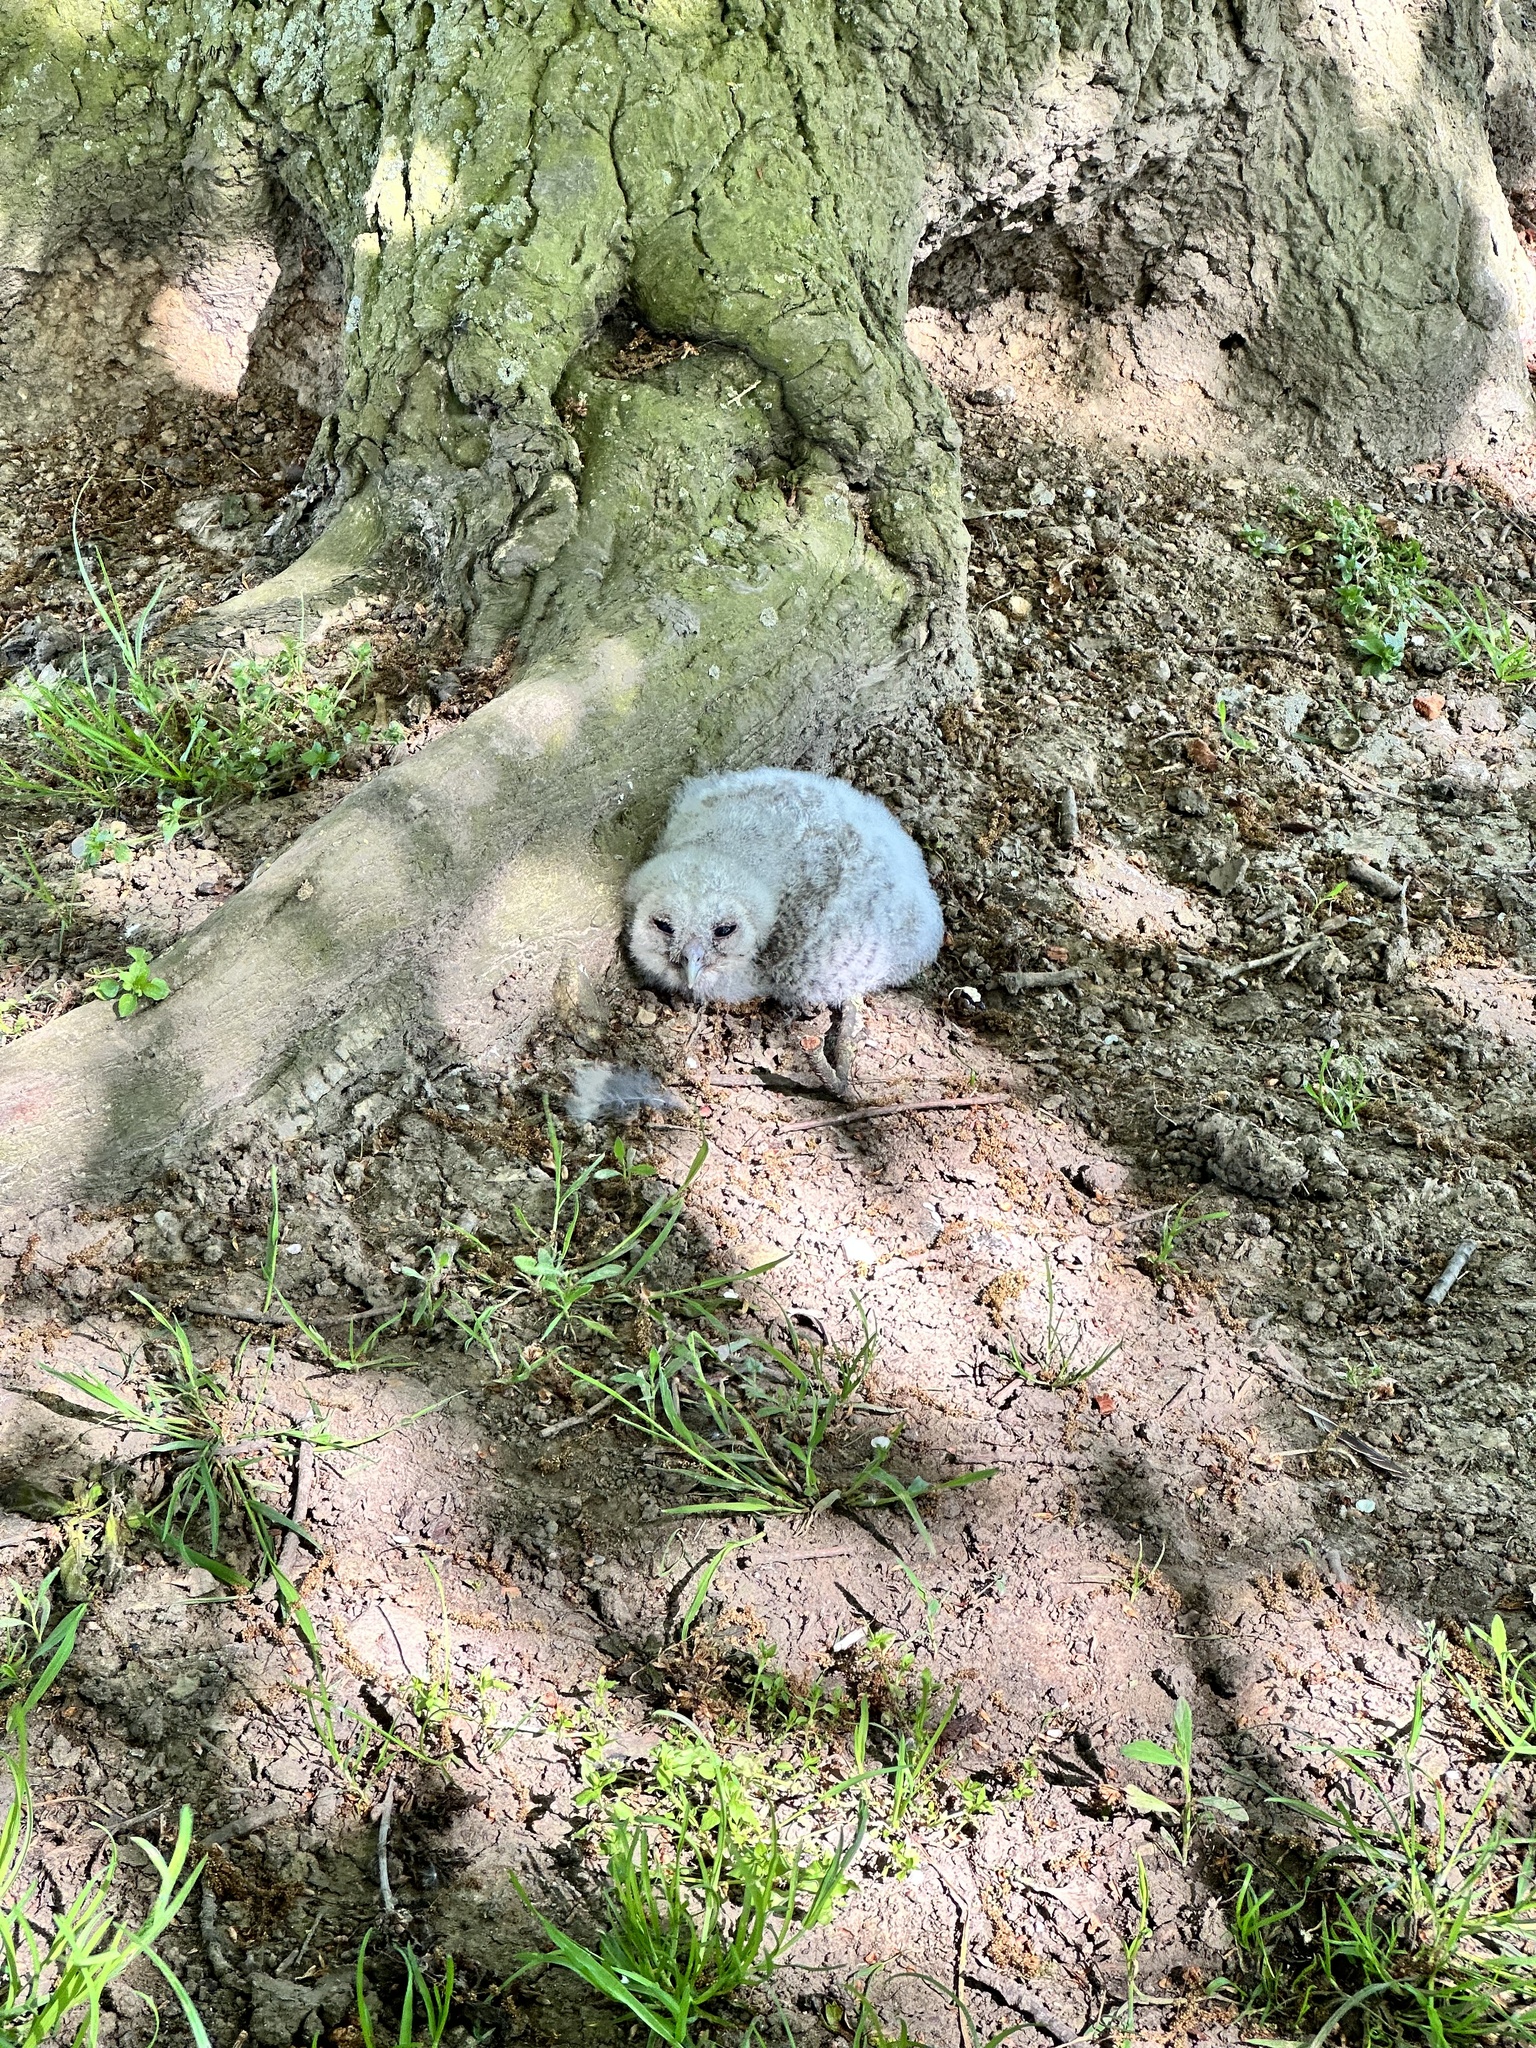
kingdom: Animalia
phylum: Chordata
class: Aves
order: Strigiformes
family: Strigidae
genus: Strix
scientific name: Strix aluco
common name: Tawny owl
